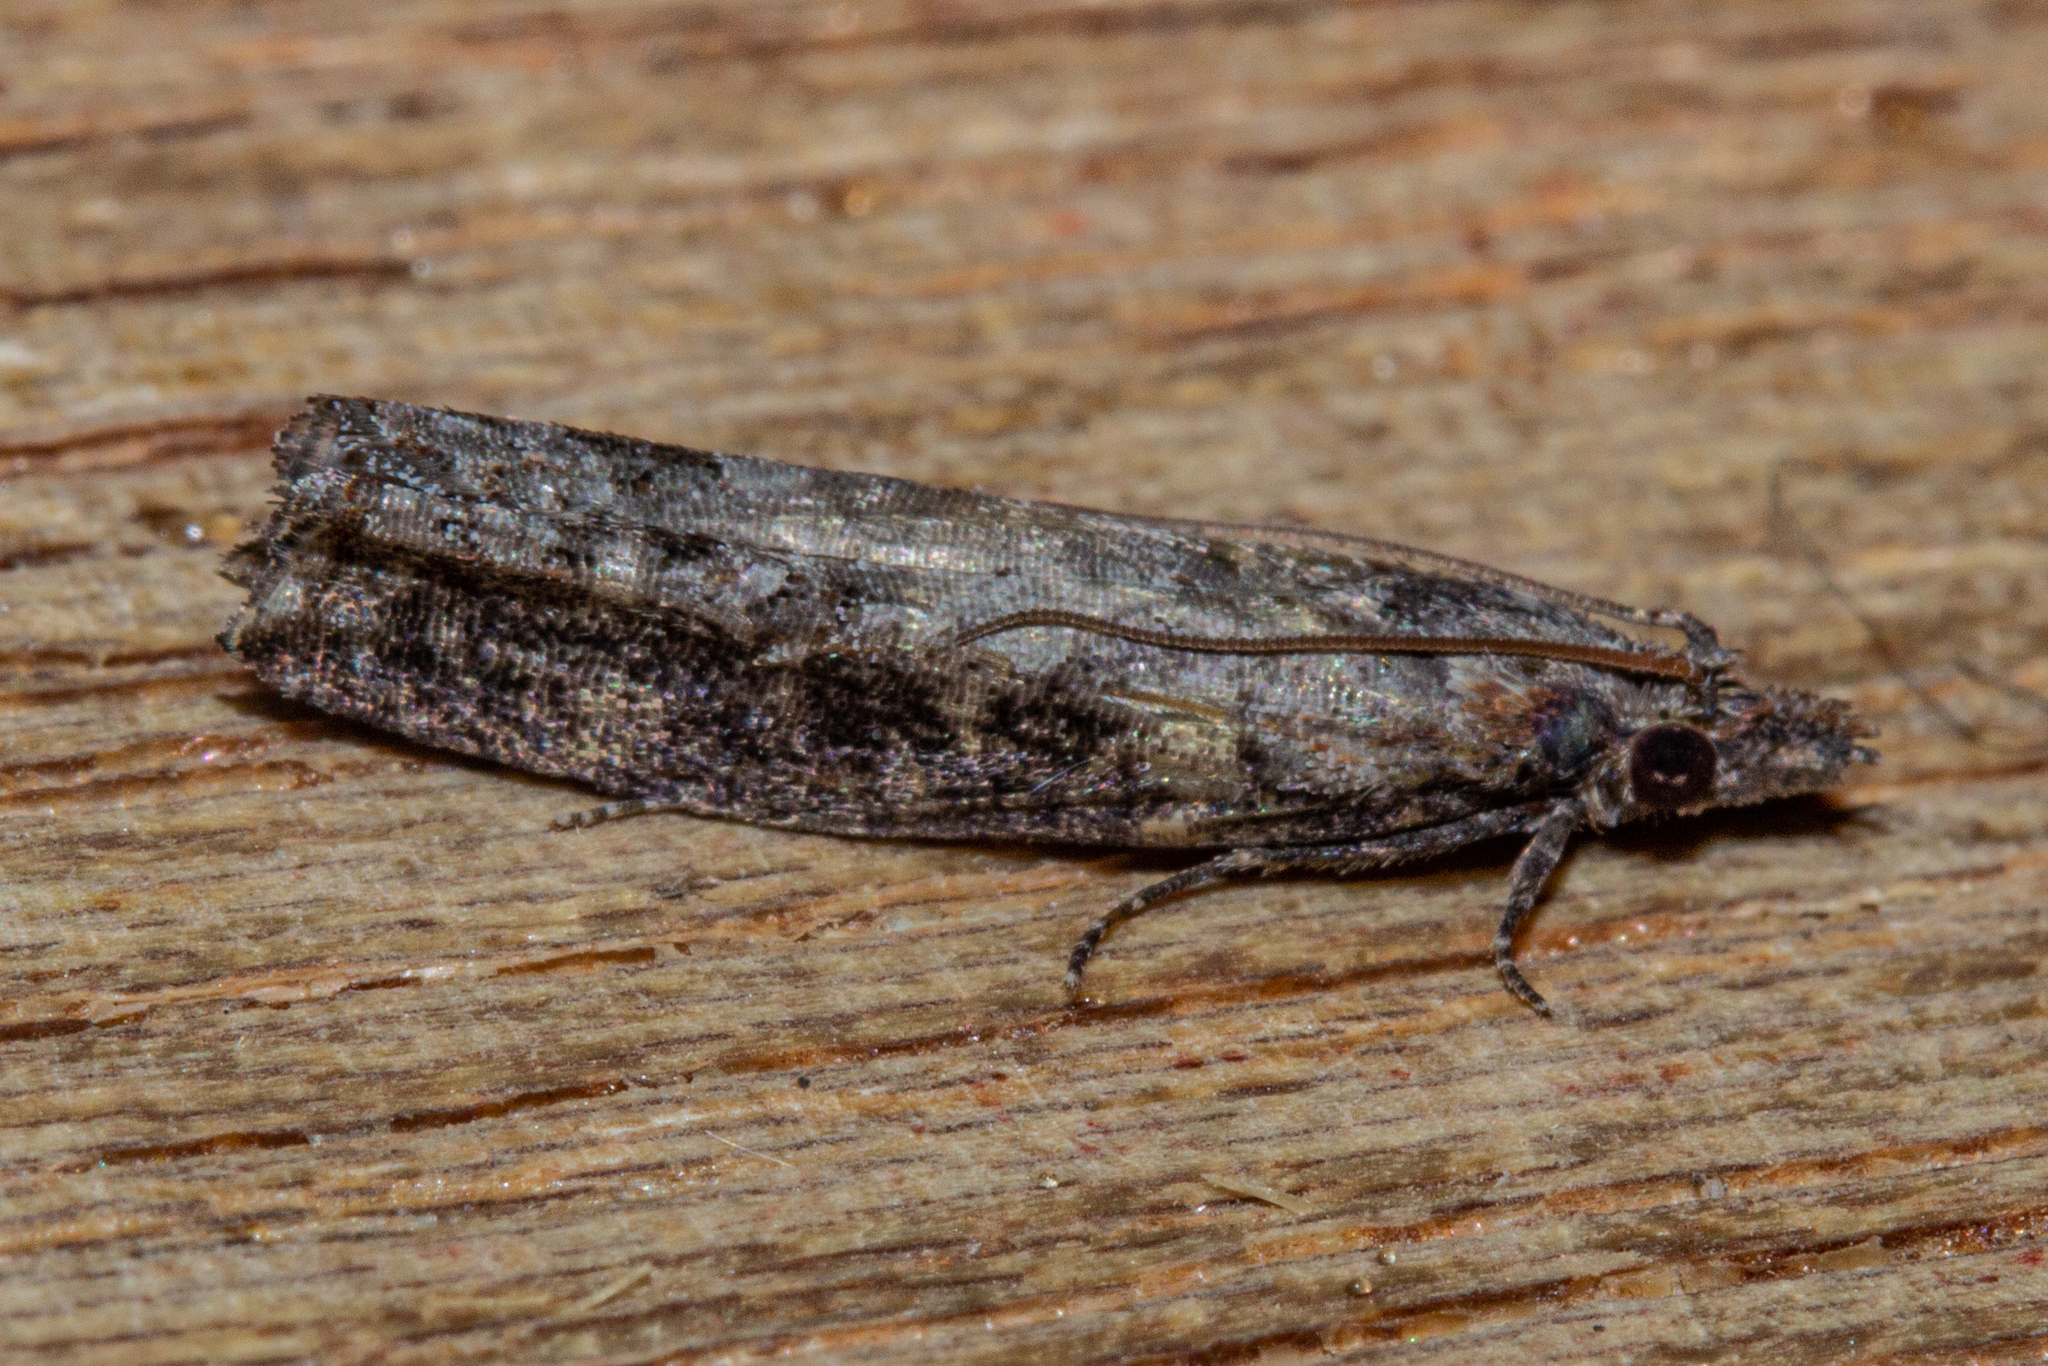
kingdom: Animalia
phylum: Arthropoda
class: Insecta
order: Lepidoptera
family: Tortricidae
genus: Strepsicrates
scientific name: Strepsicrates infensa
